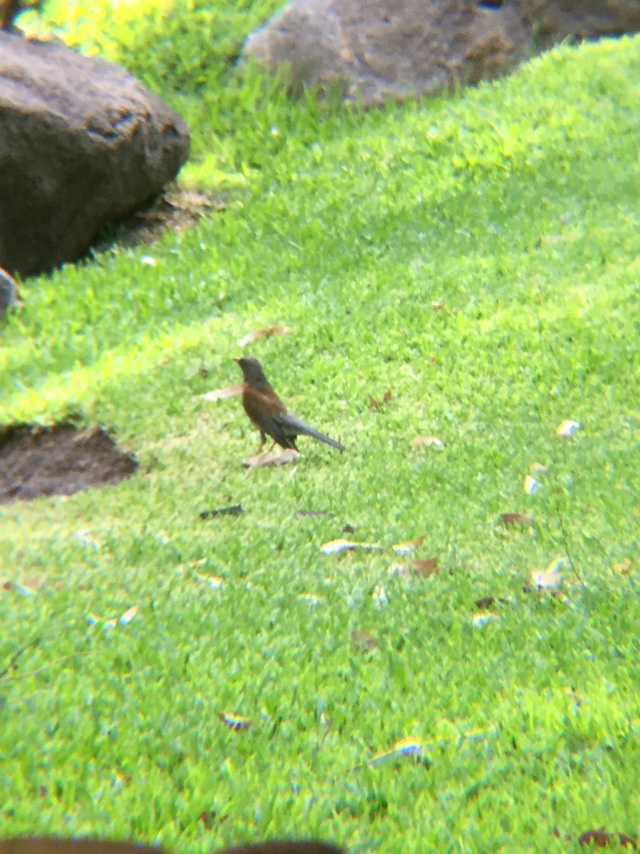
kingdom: Animalia
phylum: Chordata
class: Aves
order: Passeriformes
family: Turdidae
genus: Turdus
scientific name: Turdus rufopalliatus
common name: Rufous-backed robin
